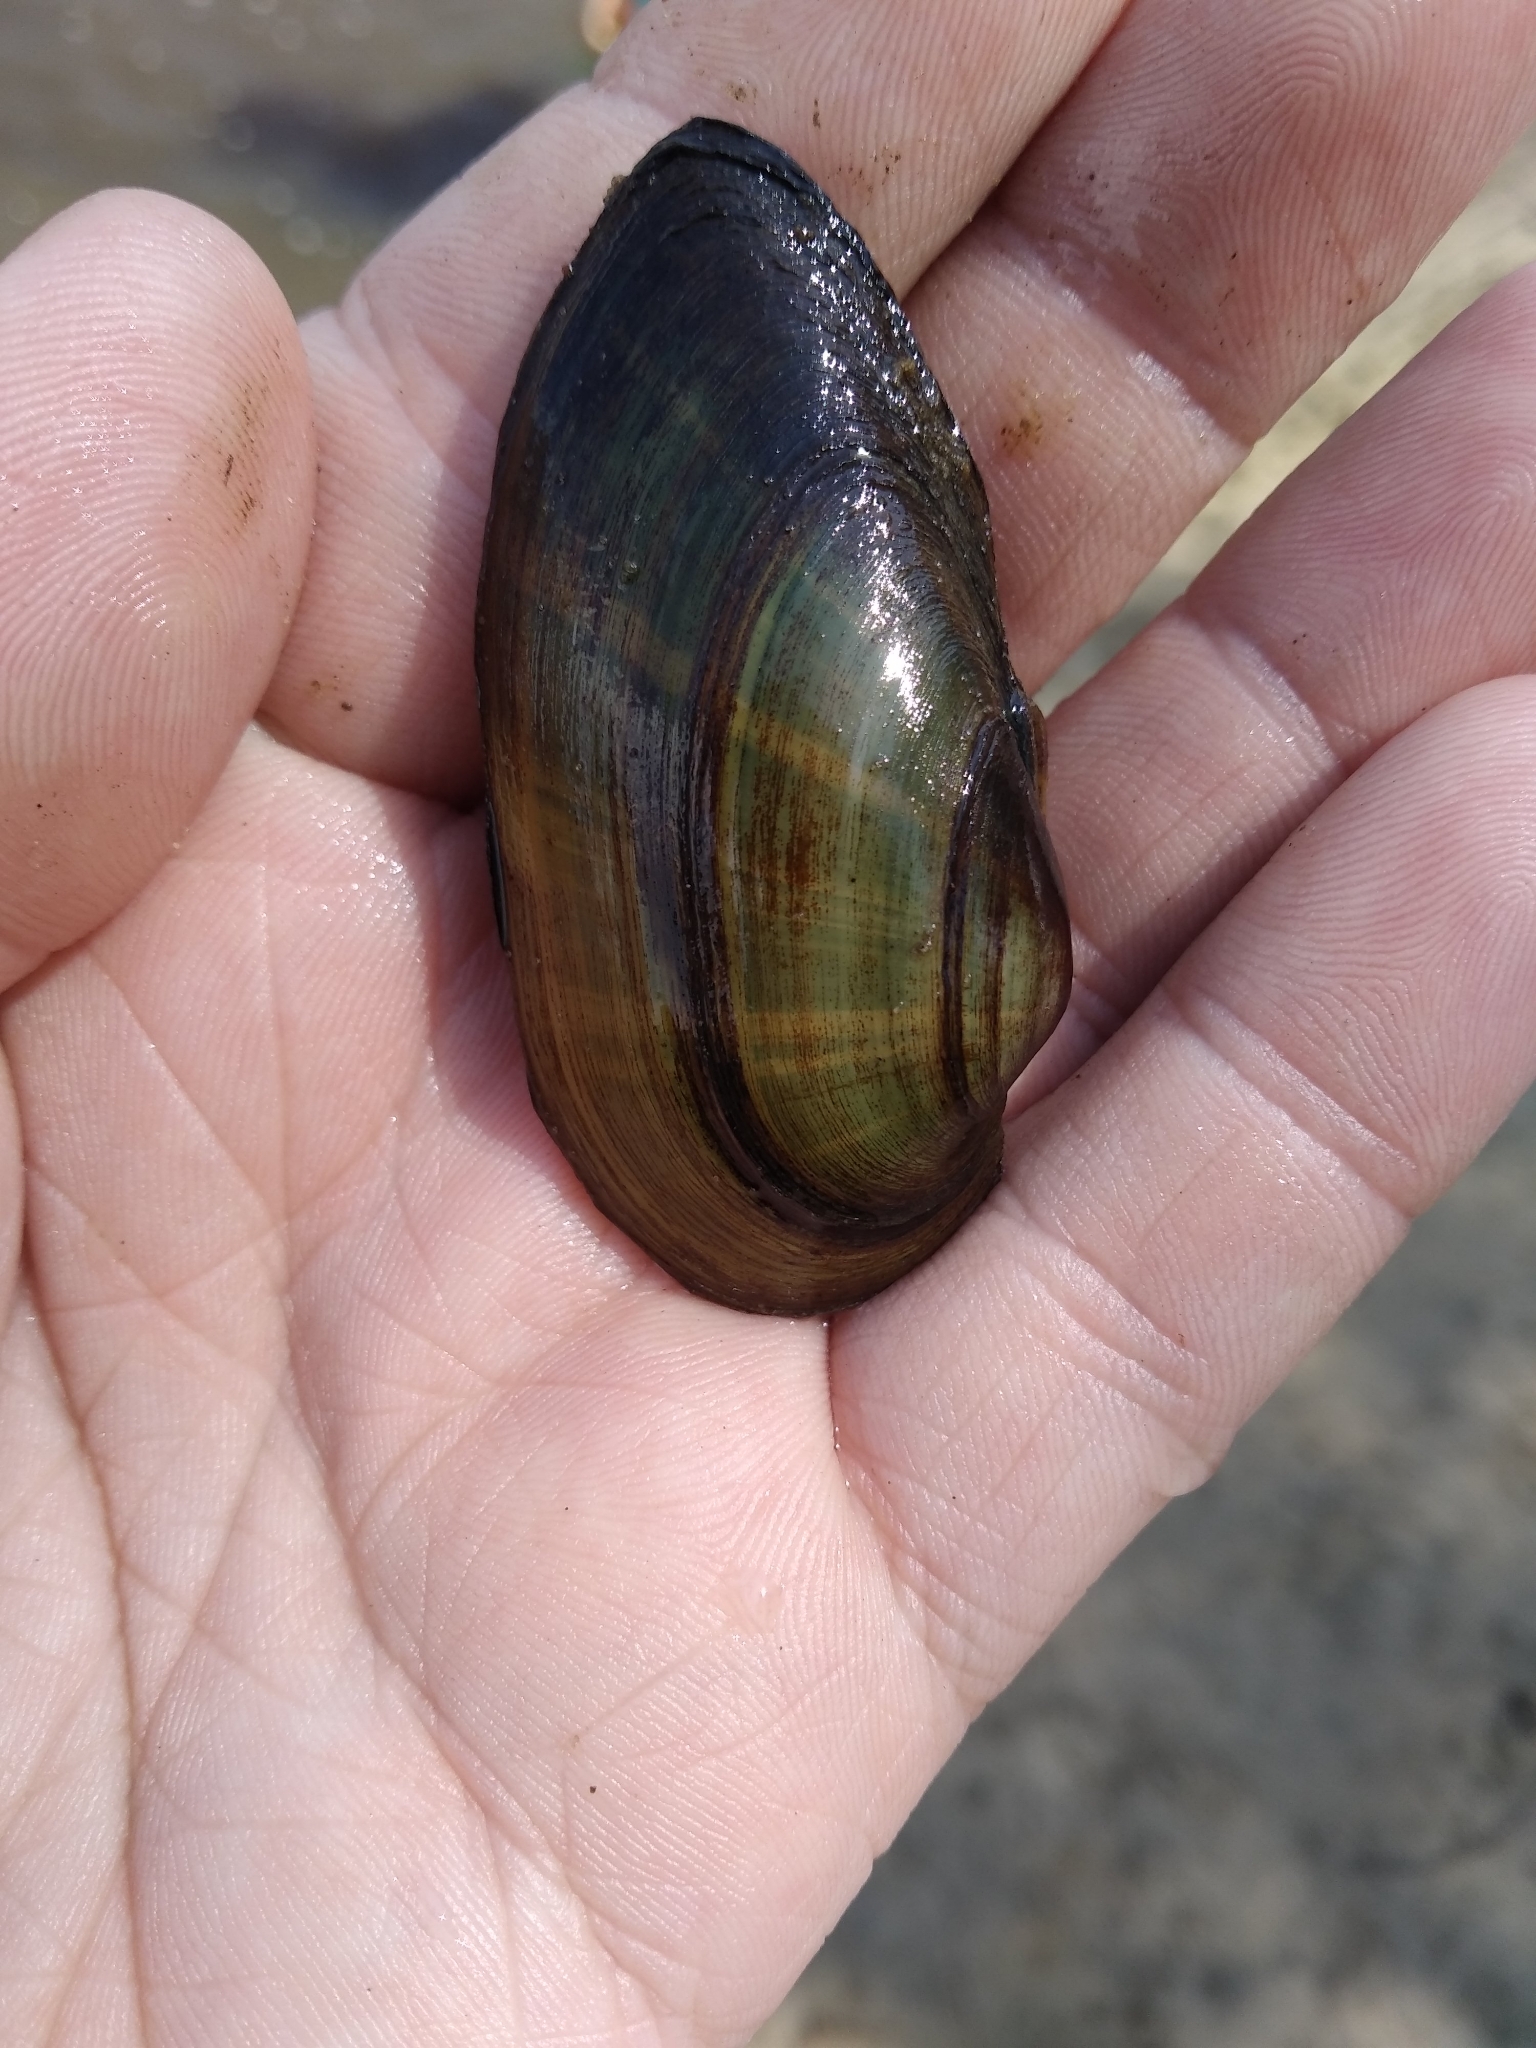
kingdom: Animalia
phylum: Mollusca
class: Bivalvia
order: Unionida
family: Unionidae
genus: Unio
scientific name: Unio pictorum
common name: Painter's mussel
